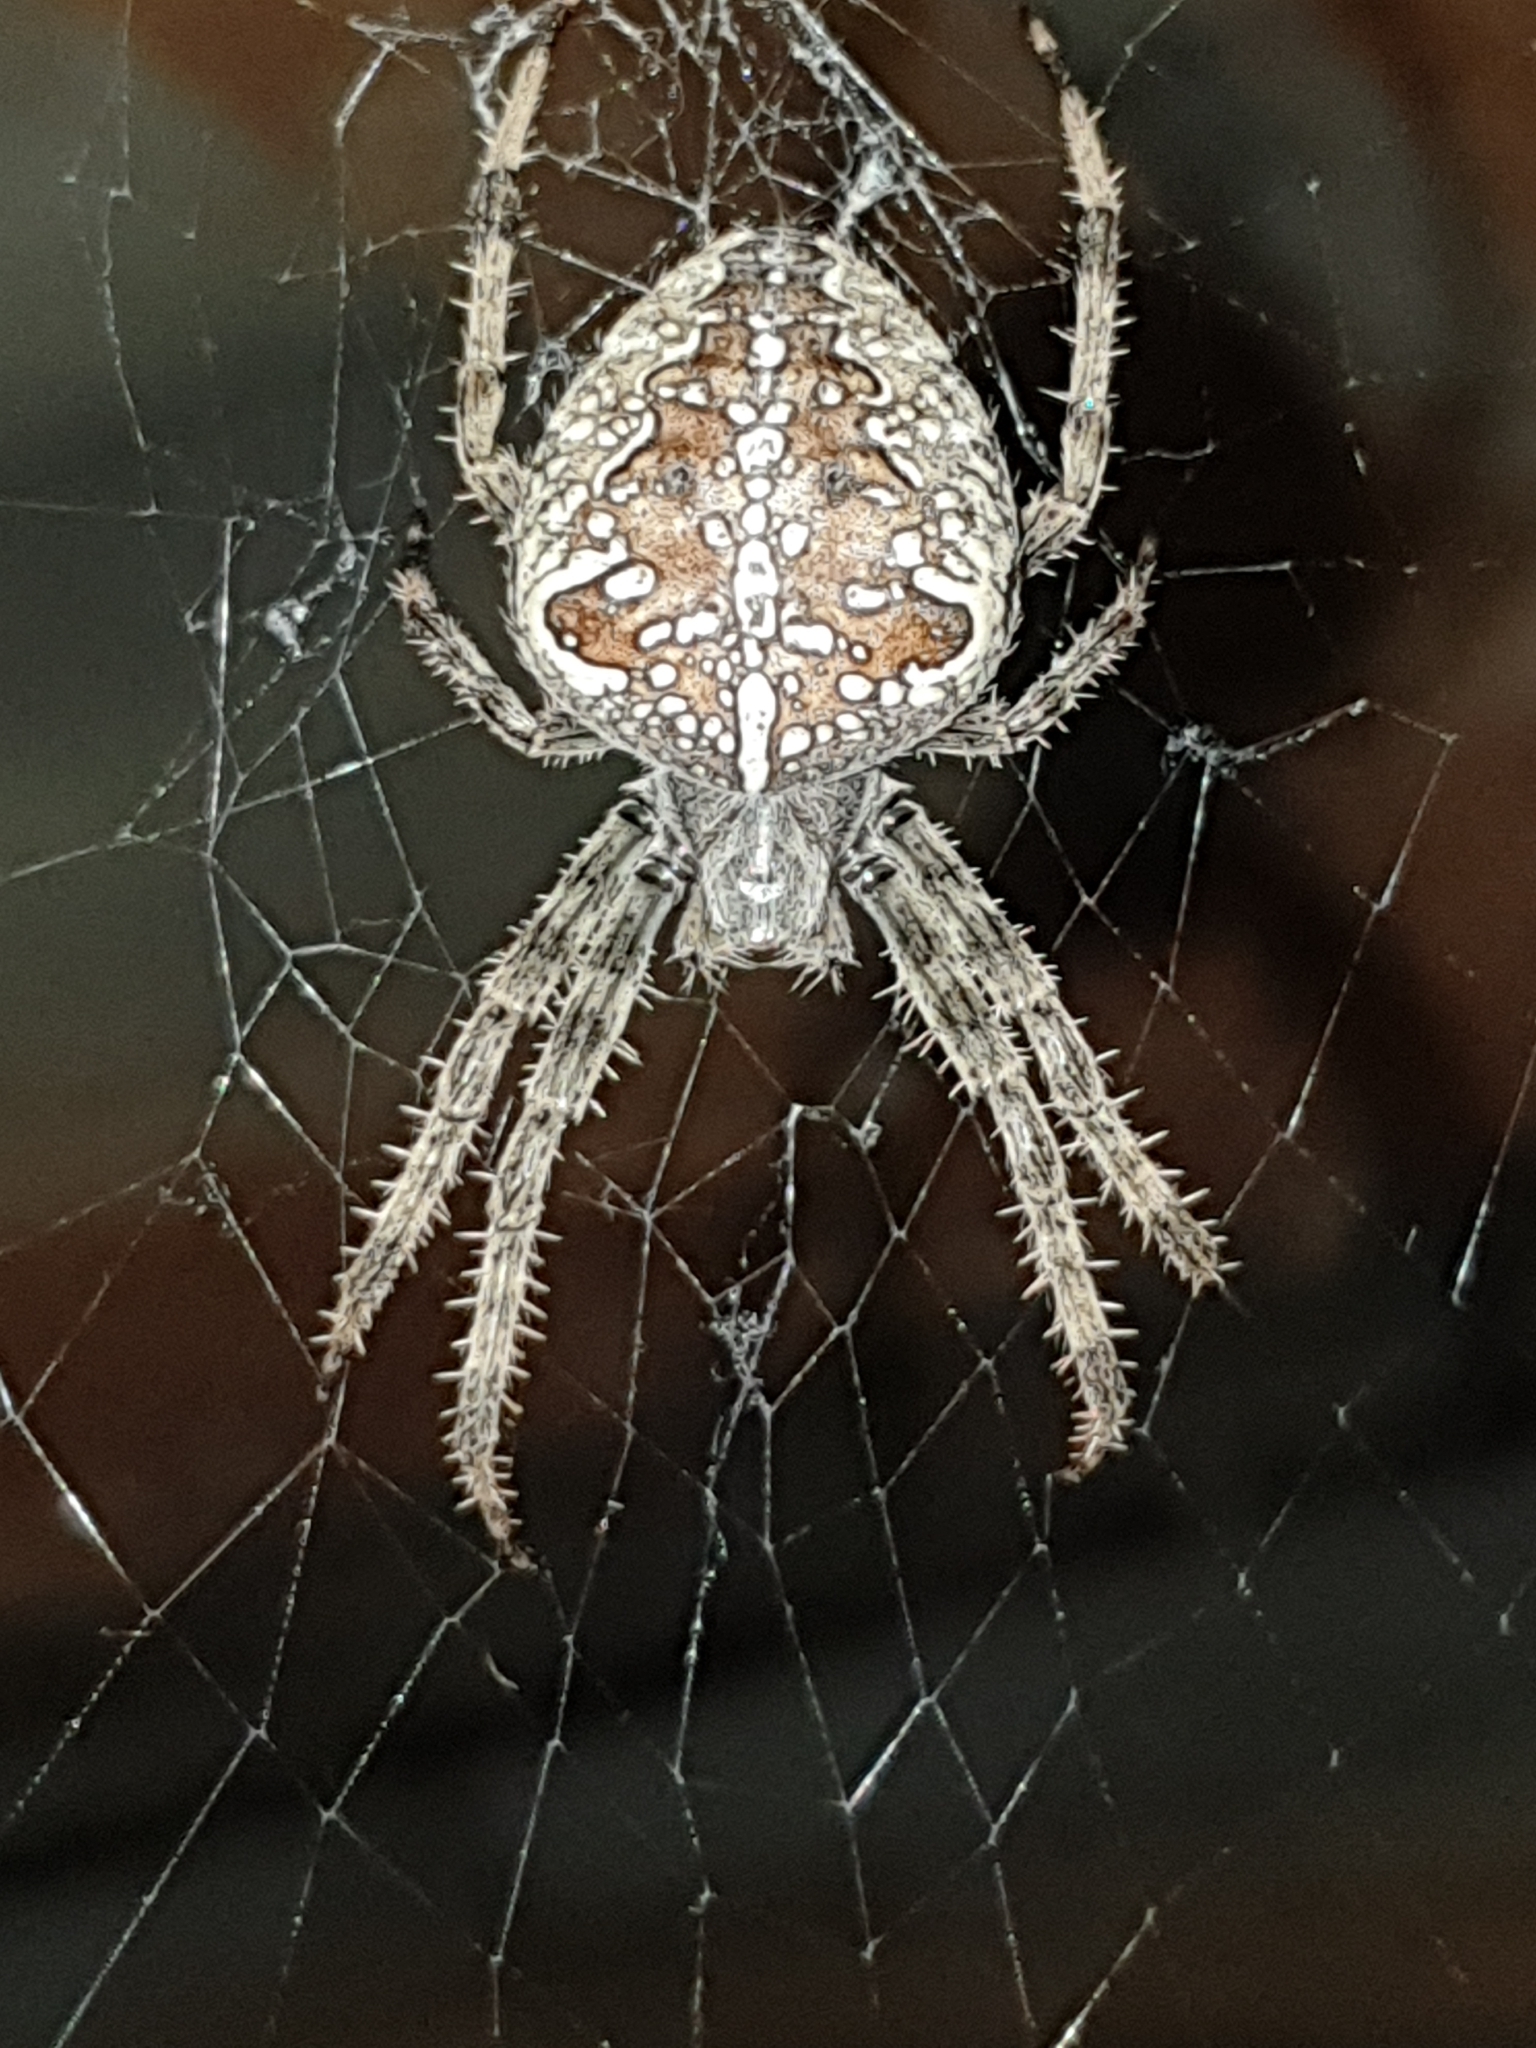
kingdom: Animalia
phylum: Arthropoda
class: Arachnida
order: Araneae
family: Araneidae
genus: Araneus
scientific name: Araneus diadematus
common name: Cross orbweaver
